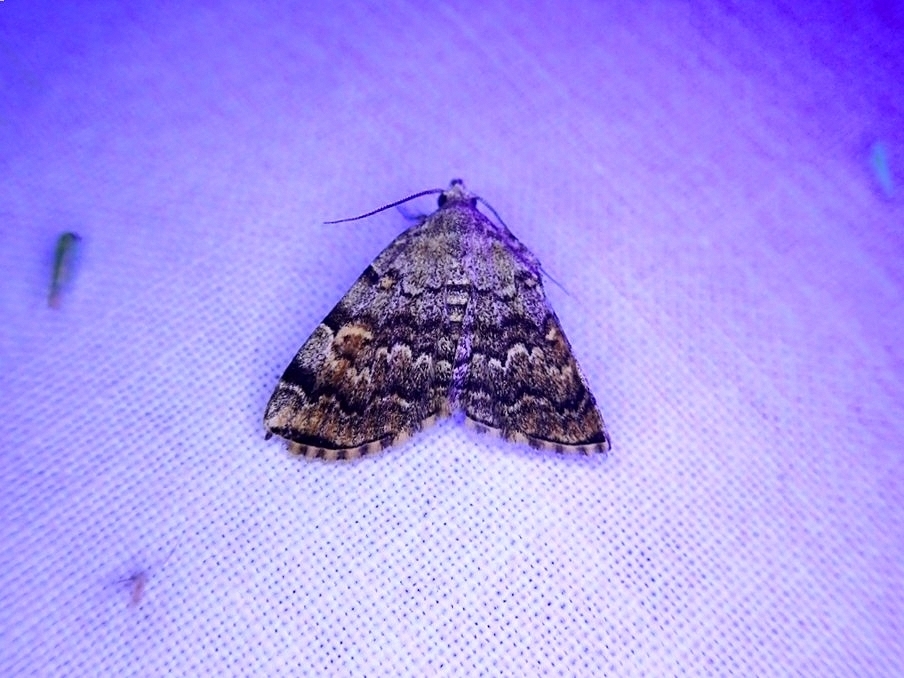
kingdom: Animalia
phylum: Arthropoda
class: Insecta
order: Lepidoptera
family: Erebidae
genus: Idia
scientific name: Idia americalis
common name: American idia moth
